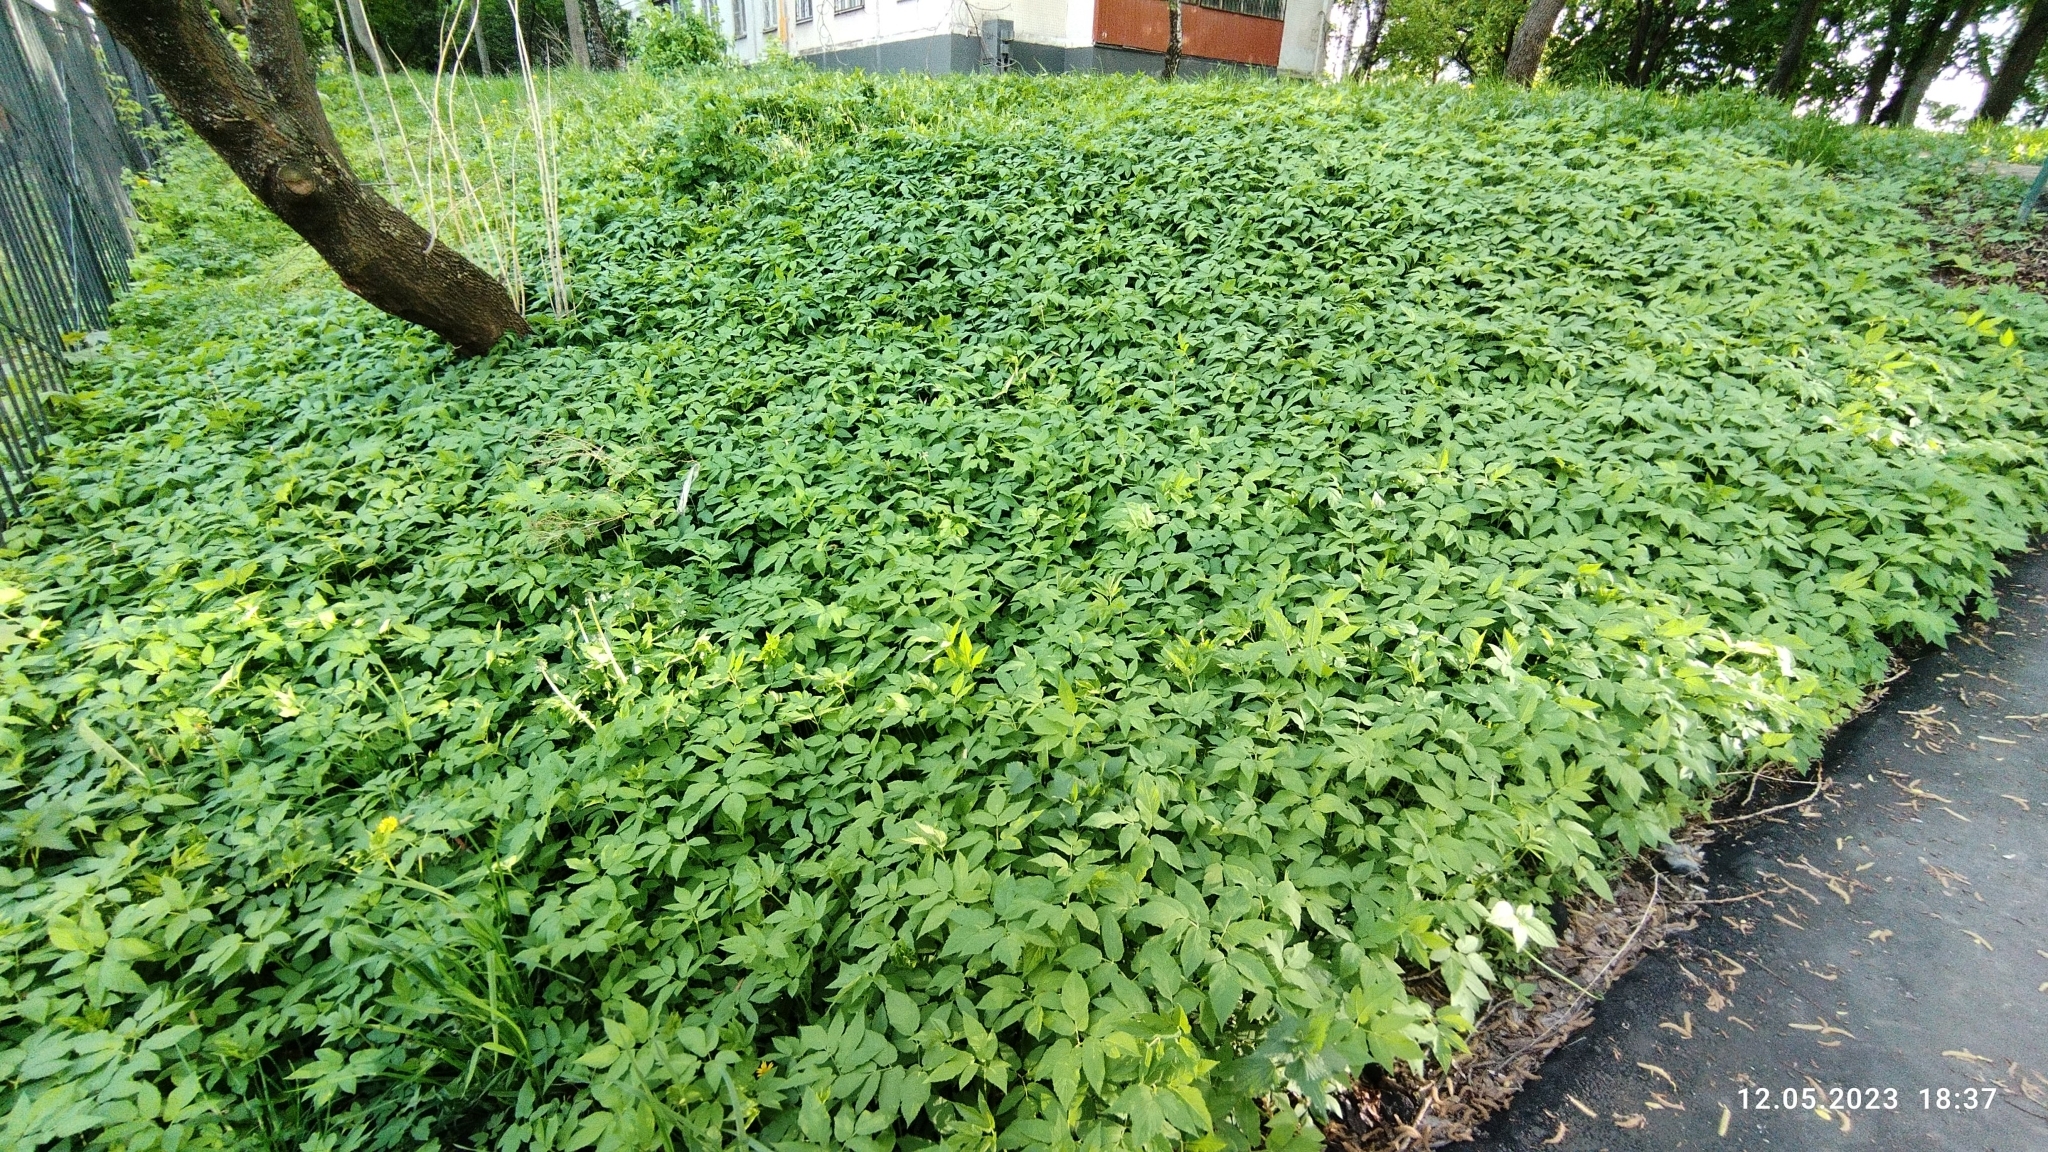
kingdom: Plantae
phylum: Tracheophyta
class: Magnoliopsida
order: Apiales
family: Apiaceae
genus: Aegopodium
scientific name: Aegopodium podagraria
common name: Ground-elder
